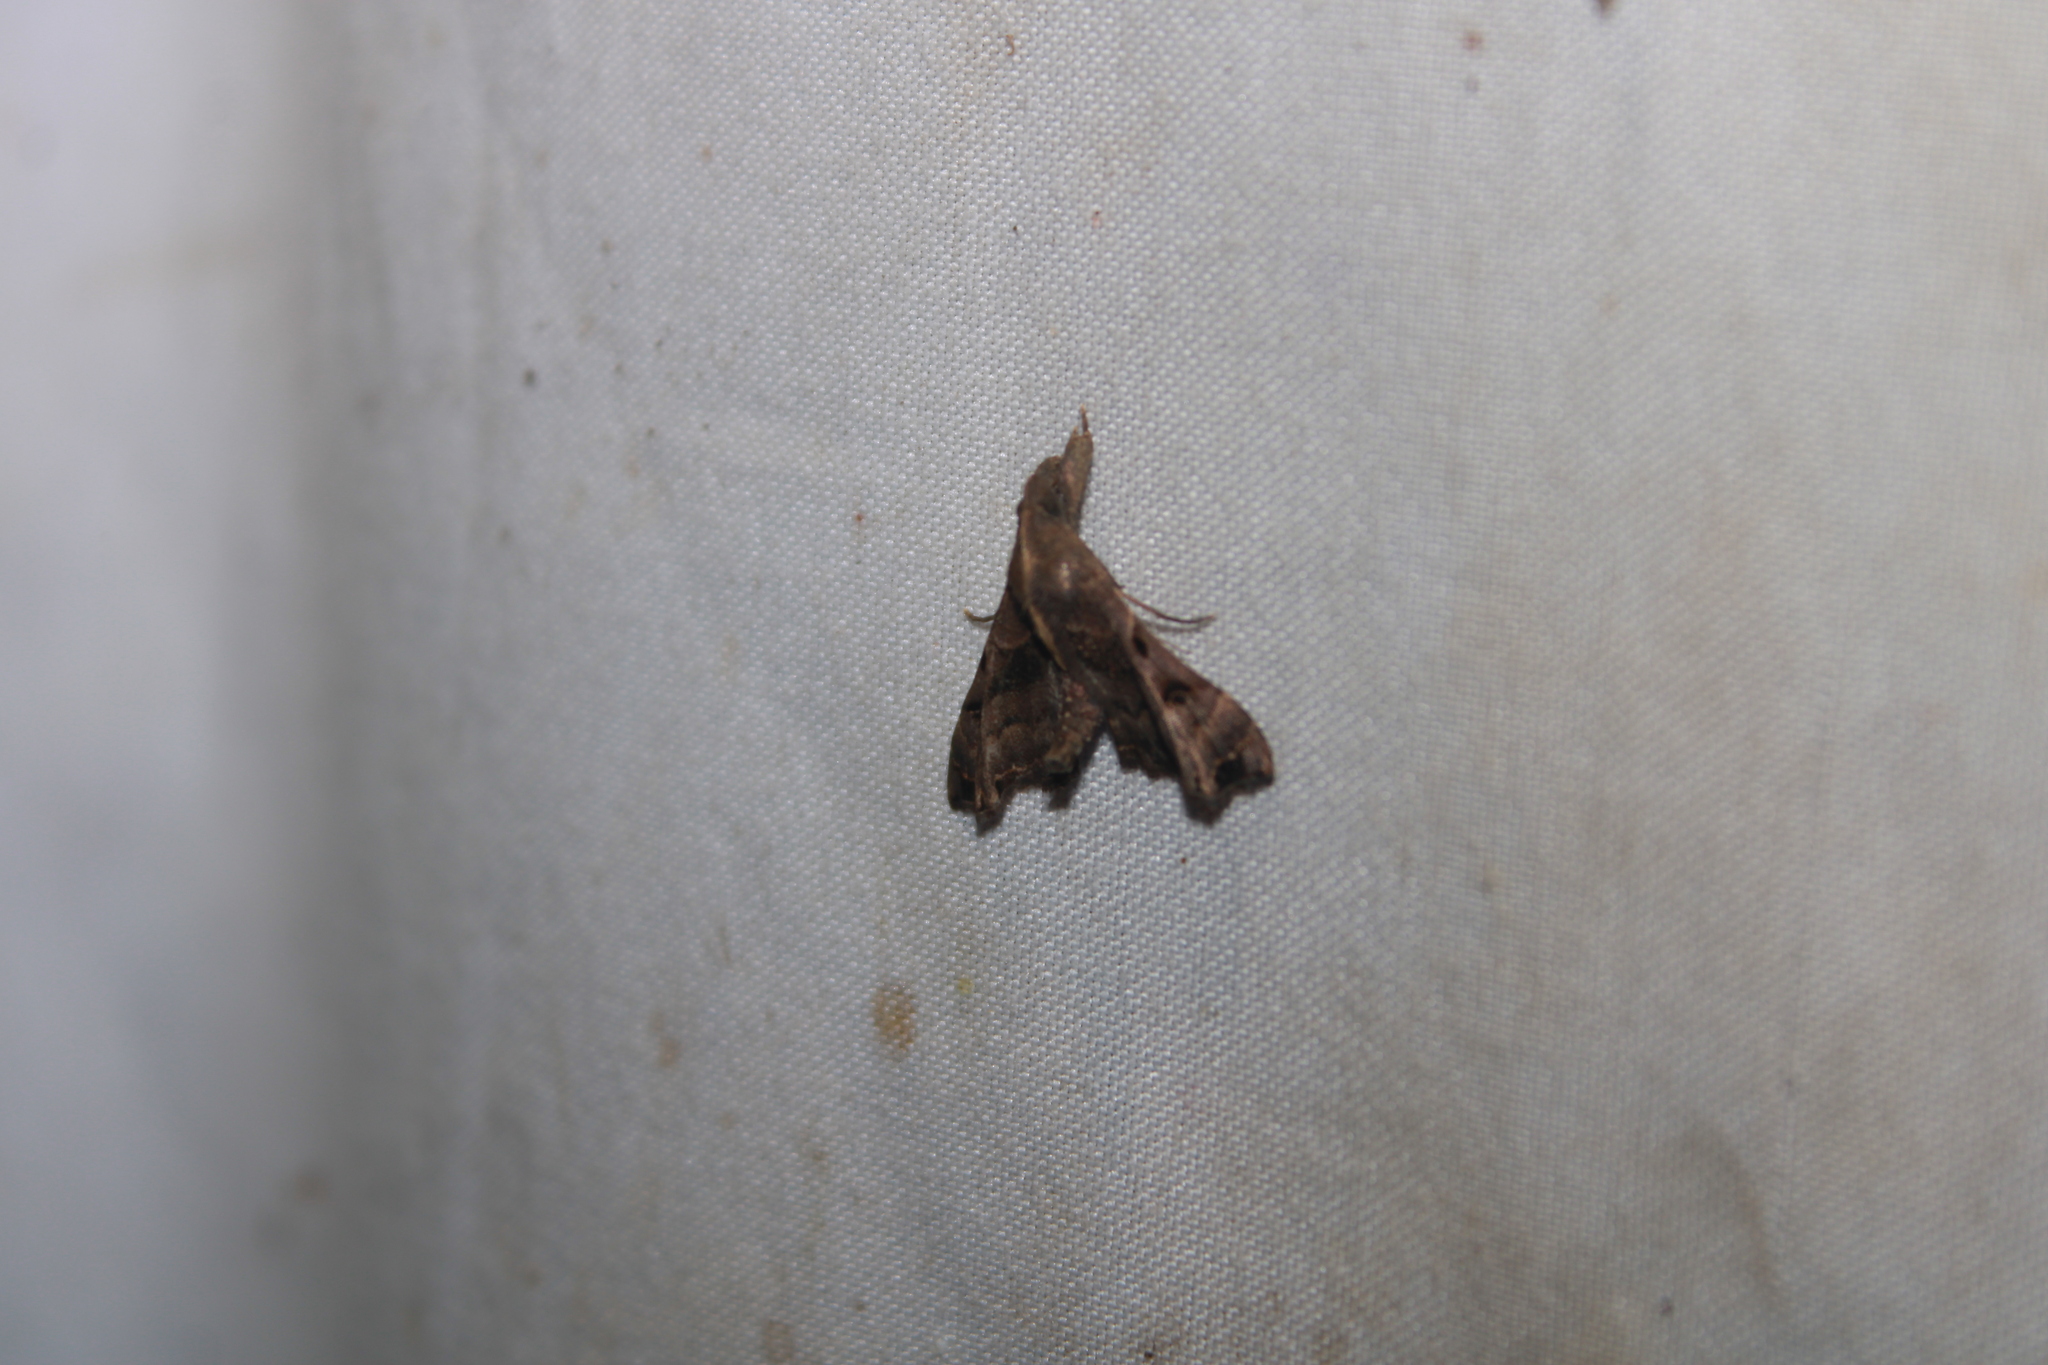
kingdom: Animalia
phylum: Arthropoda
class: Insecta
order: Lepidoptera
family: Erebidae
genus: Palthis
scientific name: Palthis asopialis
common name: Faint-spotted palthis moth
